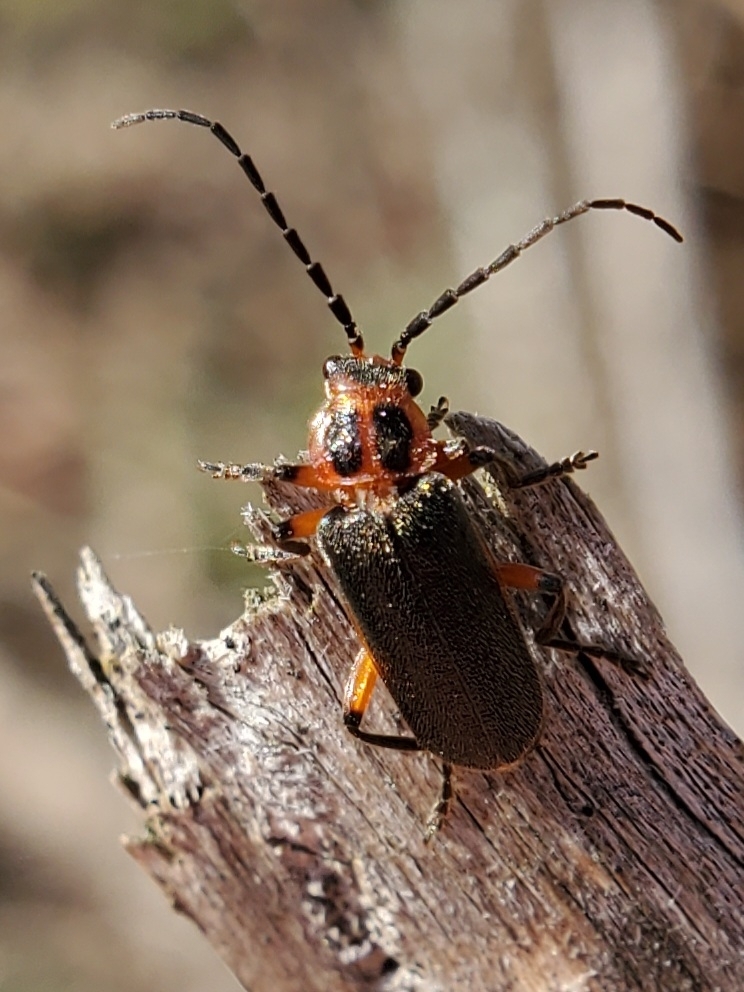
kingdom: Animalia
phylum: Arthropoda
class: Insecta
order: Coleoptera
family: Cantharidae
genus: Atalantycha
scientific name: Atalantycha bilineata
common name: Two-lined leatherwing
